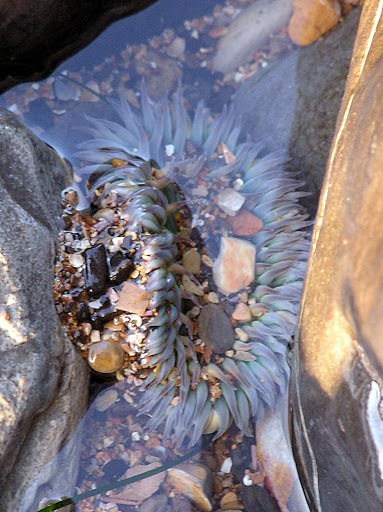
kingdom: Animalia
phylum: Cnidaria
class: Anthozoa
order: Actiniaria
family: Actiniidae
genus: Anthopleura
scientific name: Anthopleura sola
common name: Sun anemone
